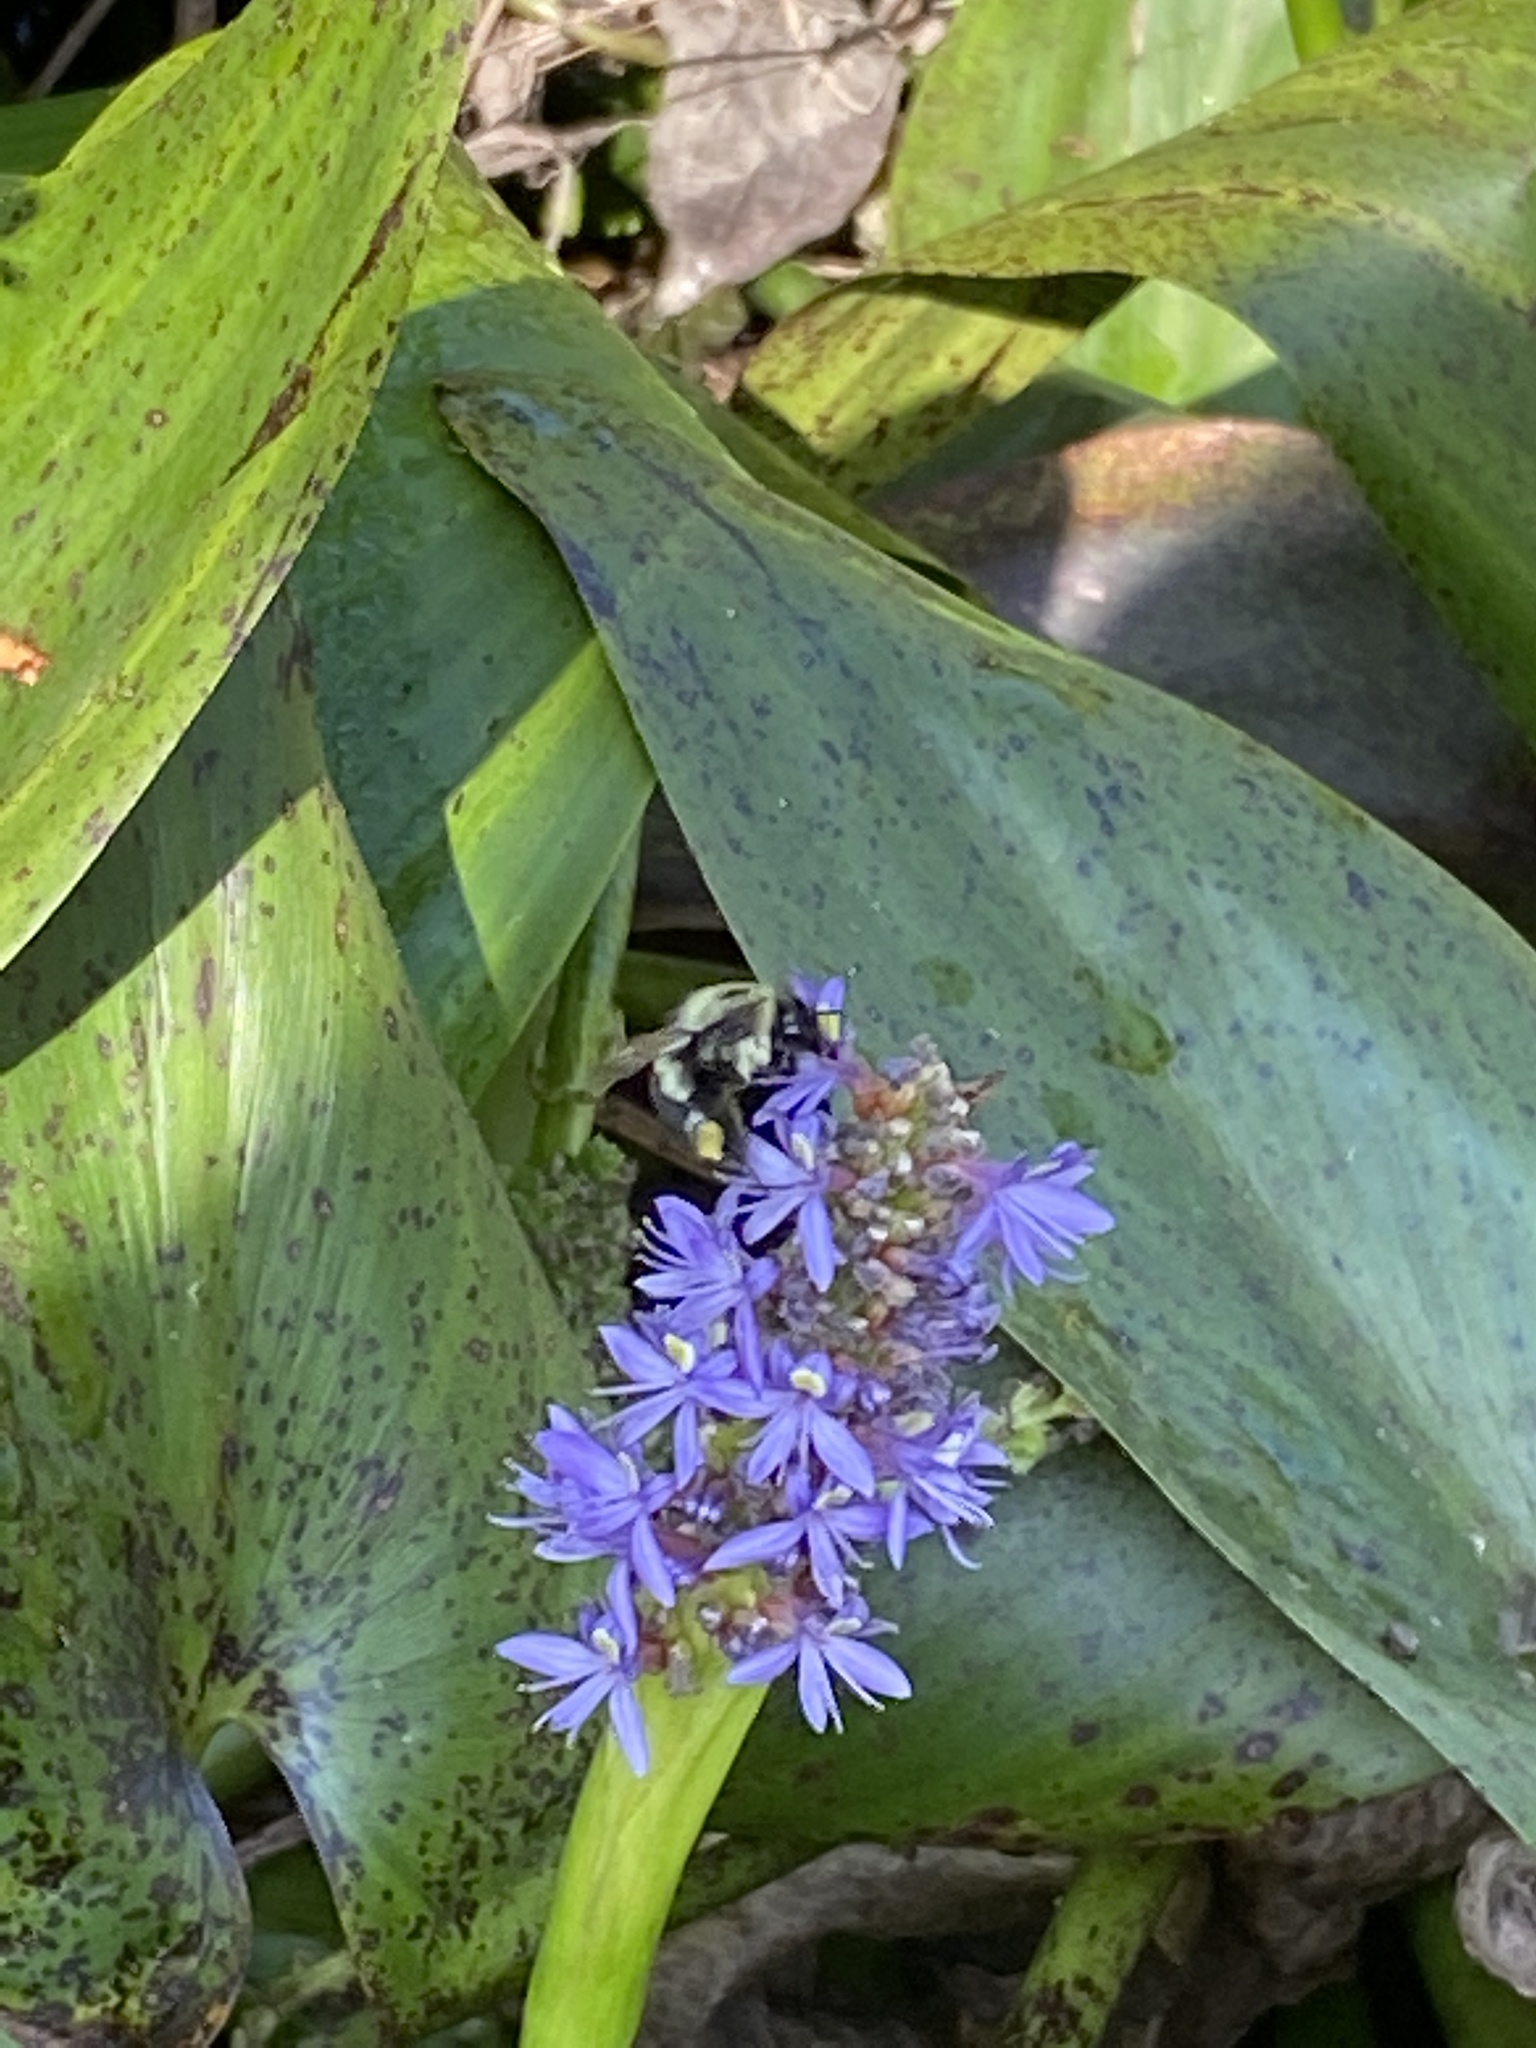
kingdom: Animalia
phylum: Arthropoda
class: Insecta
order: Hymenoptera
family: Apidae
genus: Bombus
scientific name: Bombus impatiens
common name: Common eastern bumble bee
